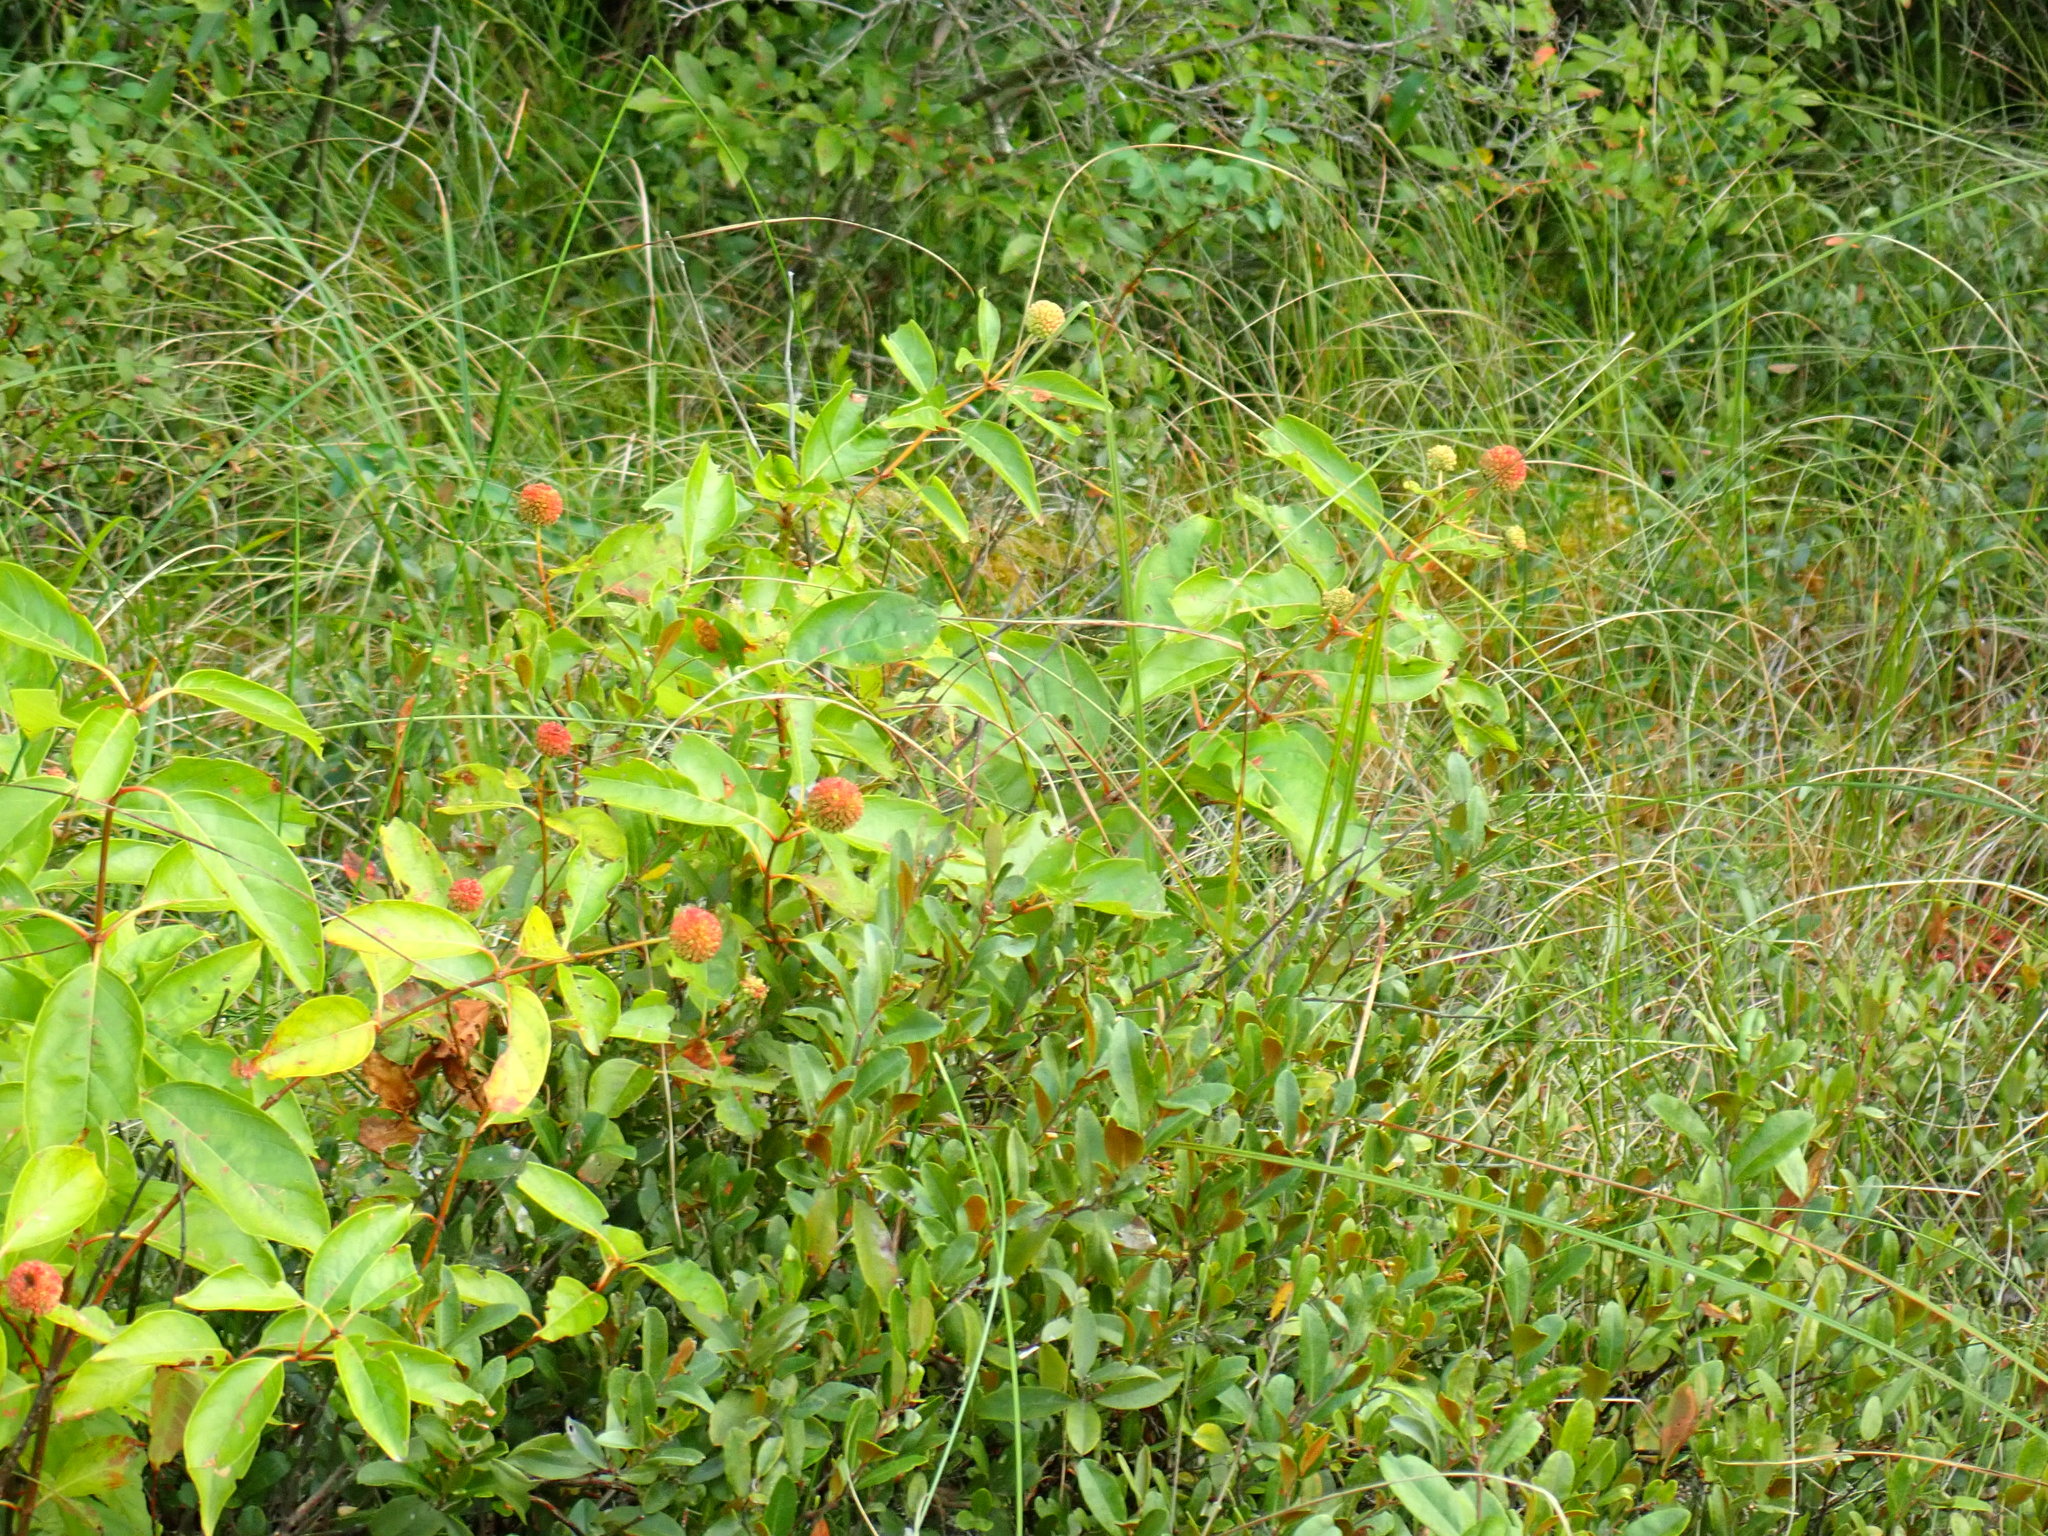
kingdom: Plantae
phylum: Tracheophyta
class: Magnoliopsida
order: Gentianales
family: Rubiaceae
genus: Cephalanthus
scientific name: Cephalanthus occidentalis
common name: Button-willow
